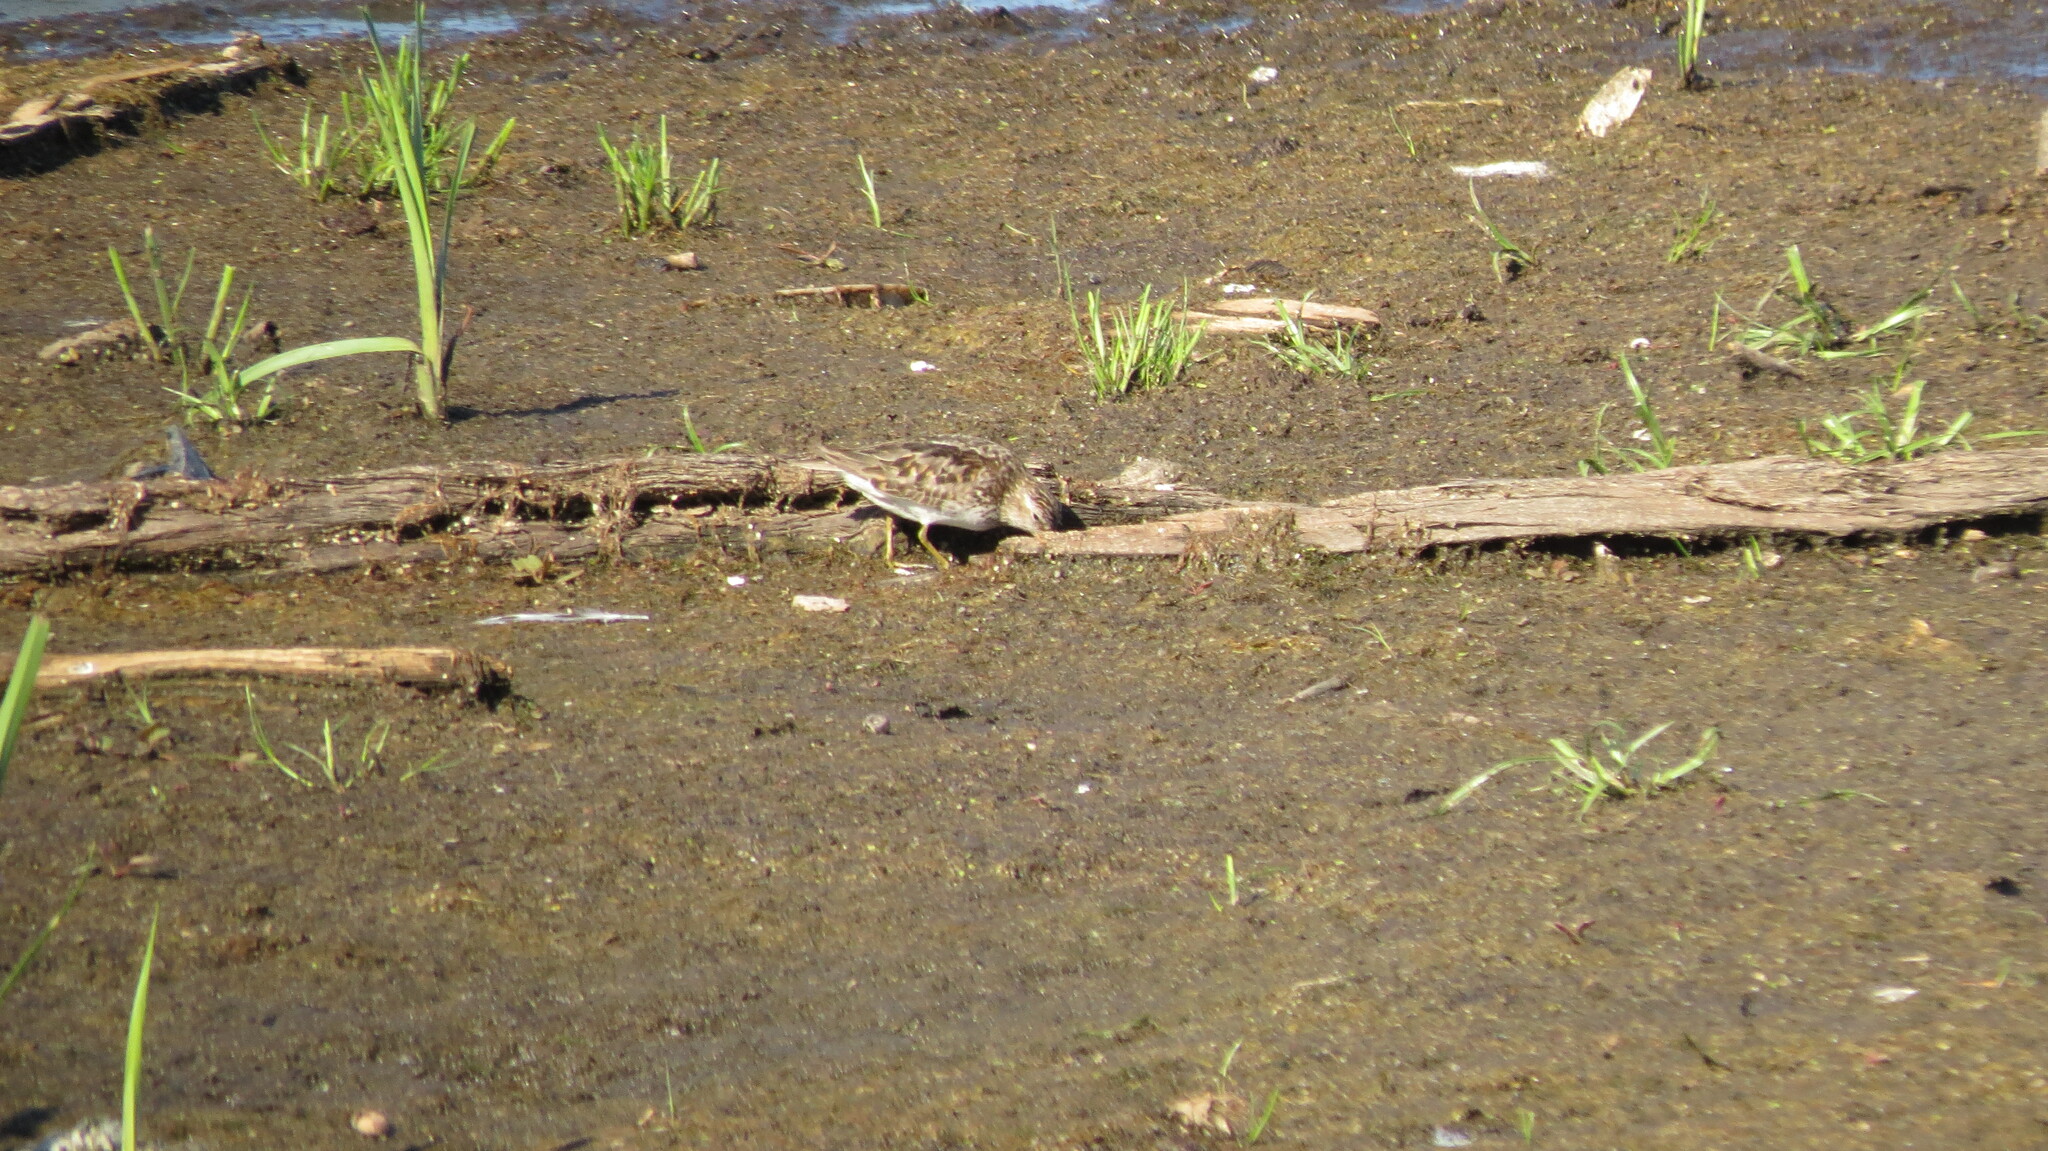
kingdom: Animalia
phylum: Chordata
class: Aves
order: Charadriiformes
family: Scolopacidae
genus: Calidris
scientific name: Calidris minutilla
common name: Least sandpiper
